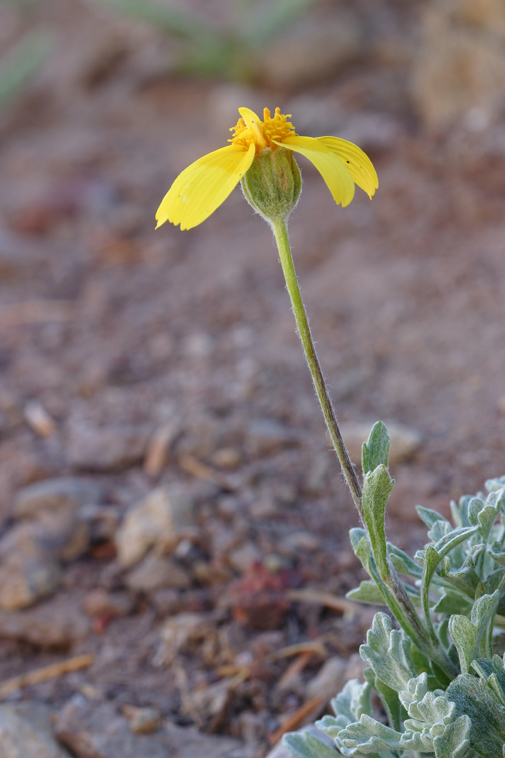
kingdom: Plantae
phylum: Tracheophyta
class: Magnoliopsida
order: Asterales
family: Asteraceae
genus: Eriophyllum
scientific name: Eriophyllum lanatum
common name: Common woolly-sunflower
